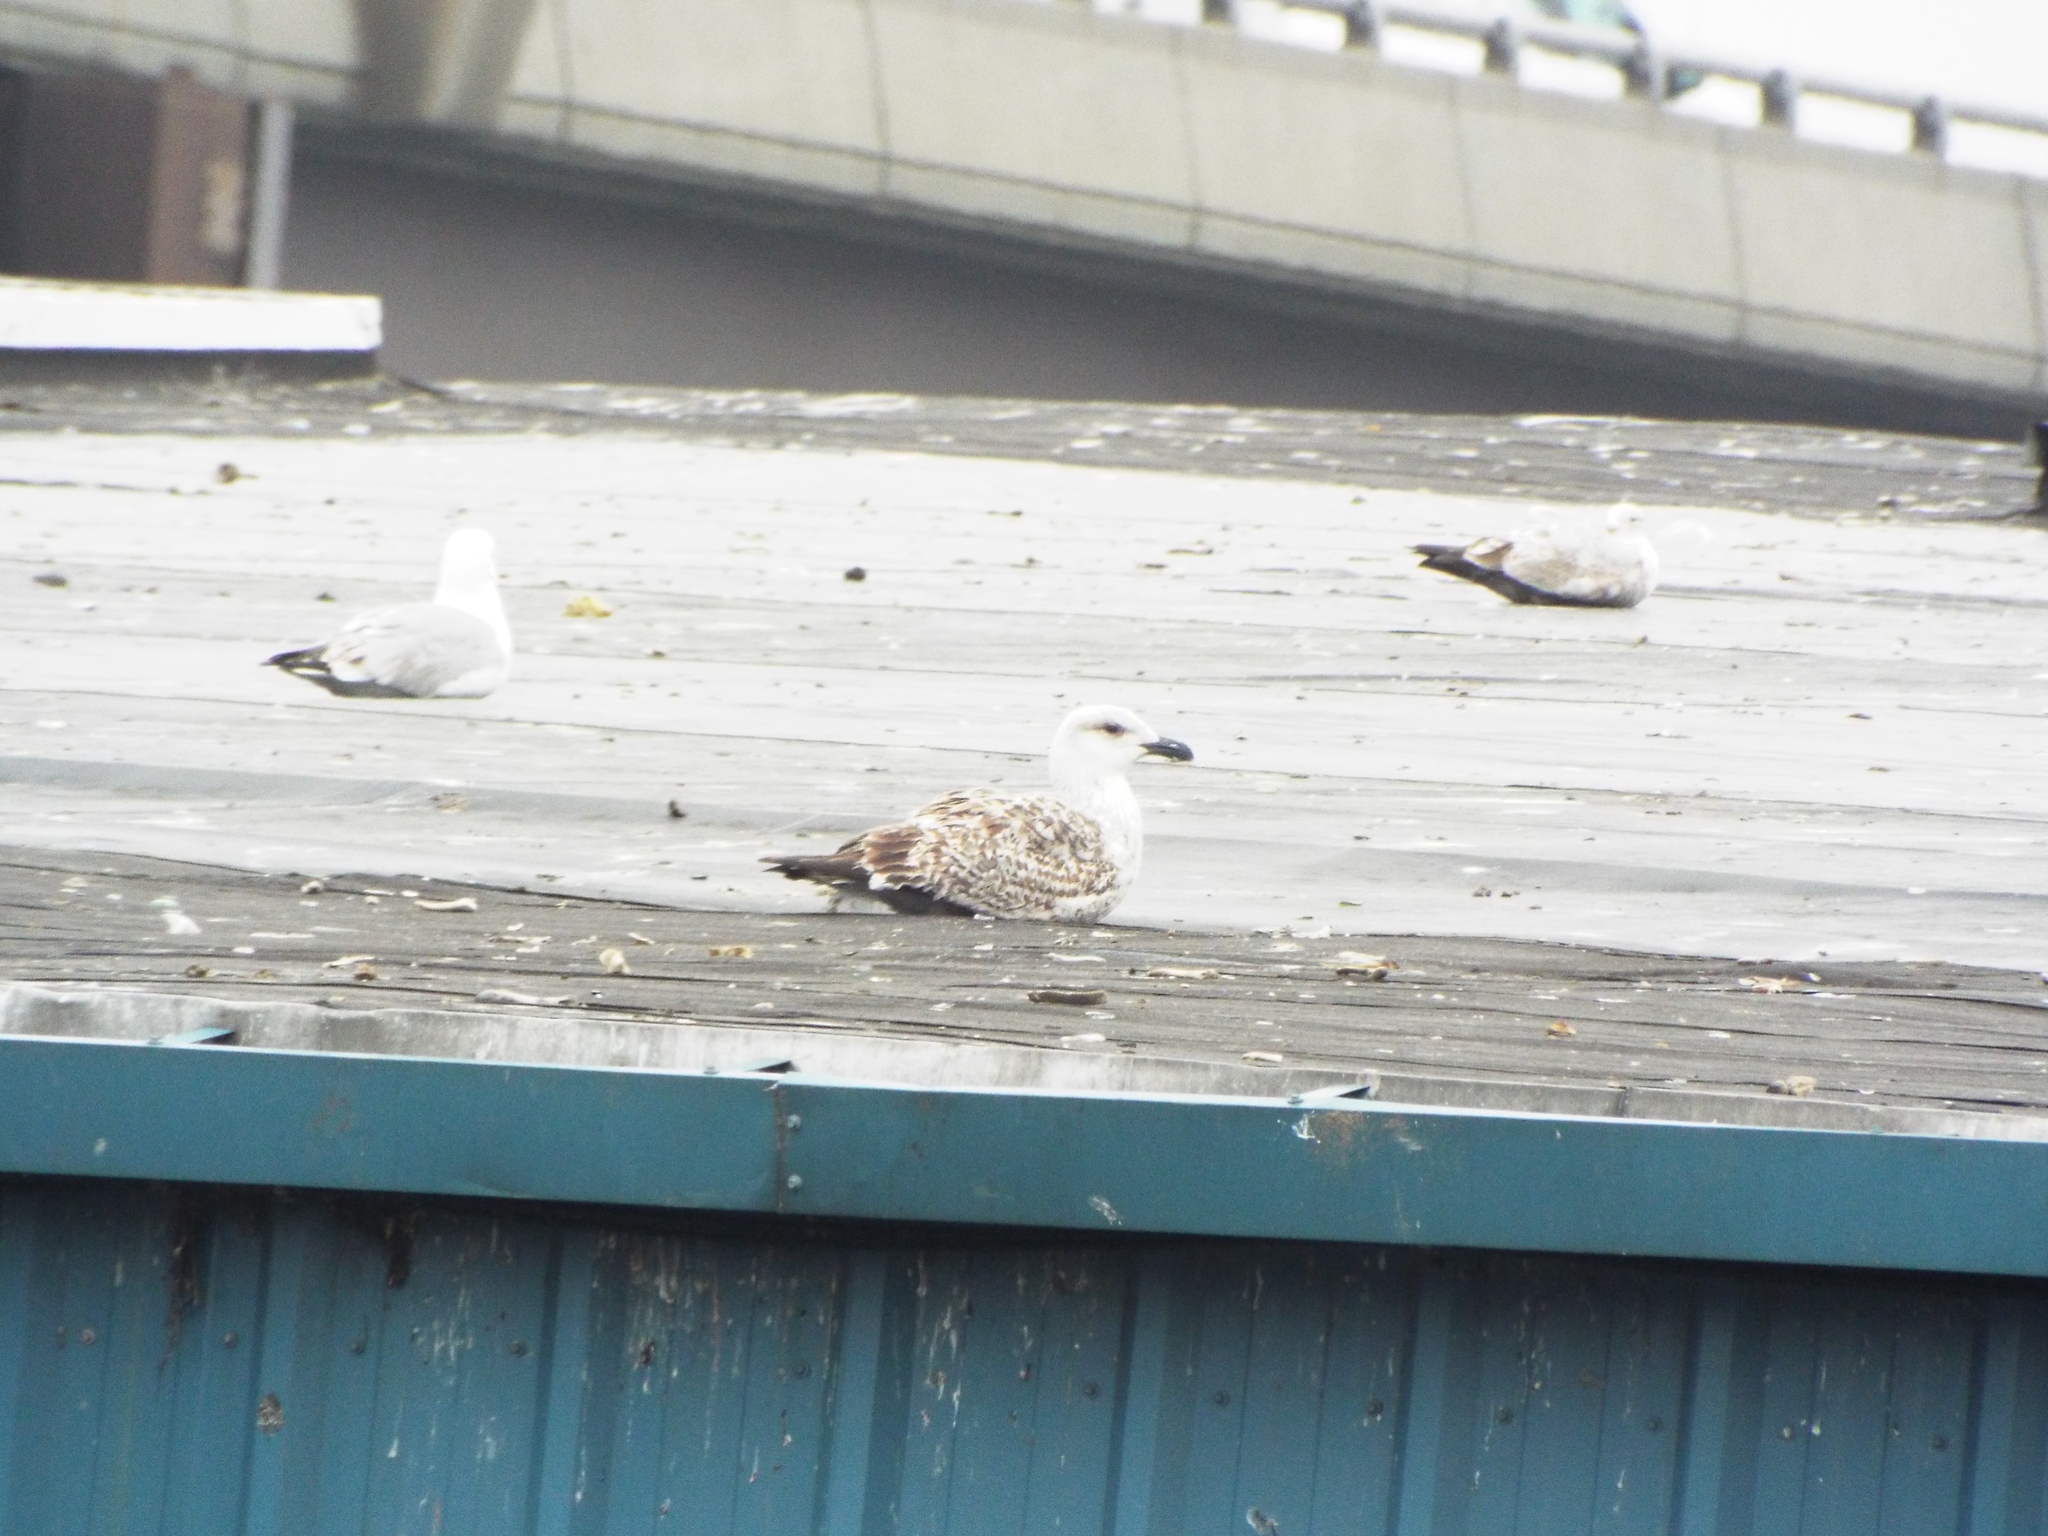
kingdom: Animalia
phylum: Chordata
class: Aves
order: Charadriiformes
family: Laridae
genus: Larus
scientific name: Larus marinus
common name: Great black-backed gull
